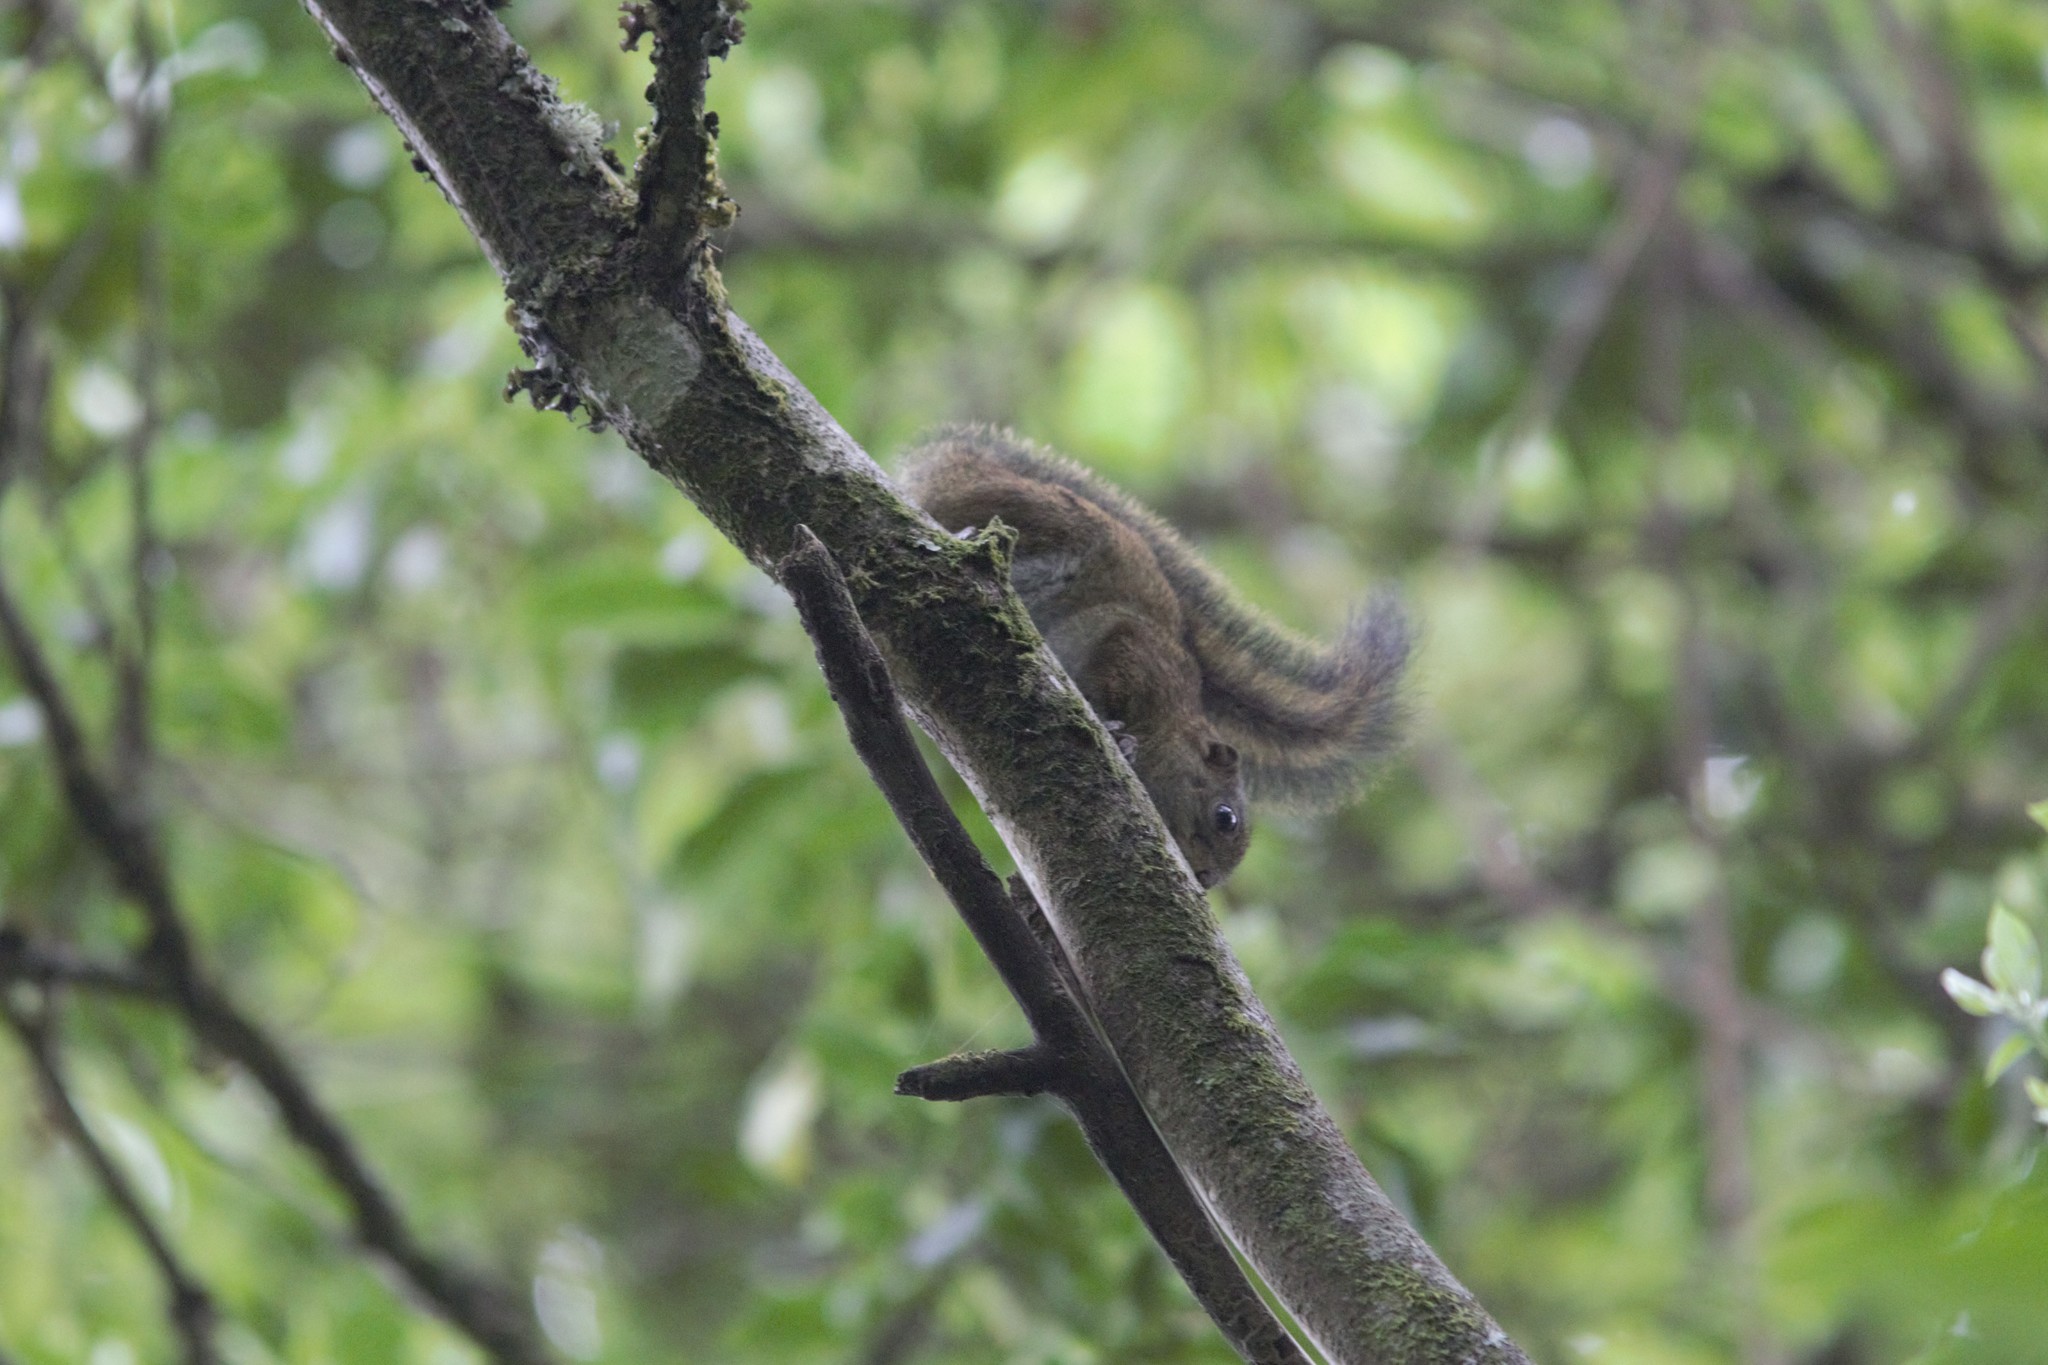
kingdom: Animalia
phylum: Chordata
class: Mammalia
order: Rodentia
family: Sciuridae
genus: Funisciurus
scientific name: Funisciurus isabella
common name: Lady burton's rope squirrel
